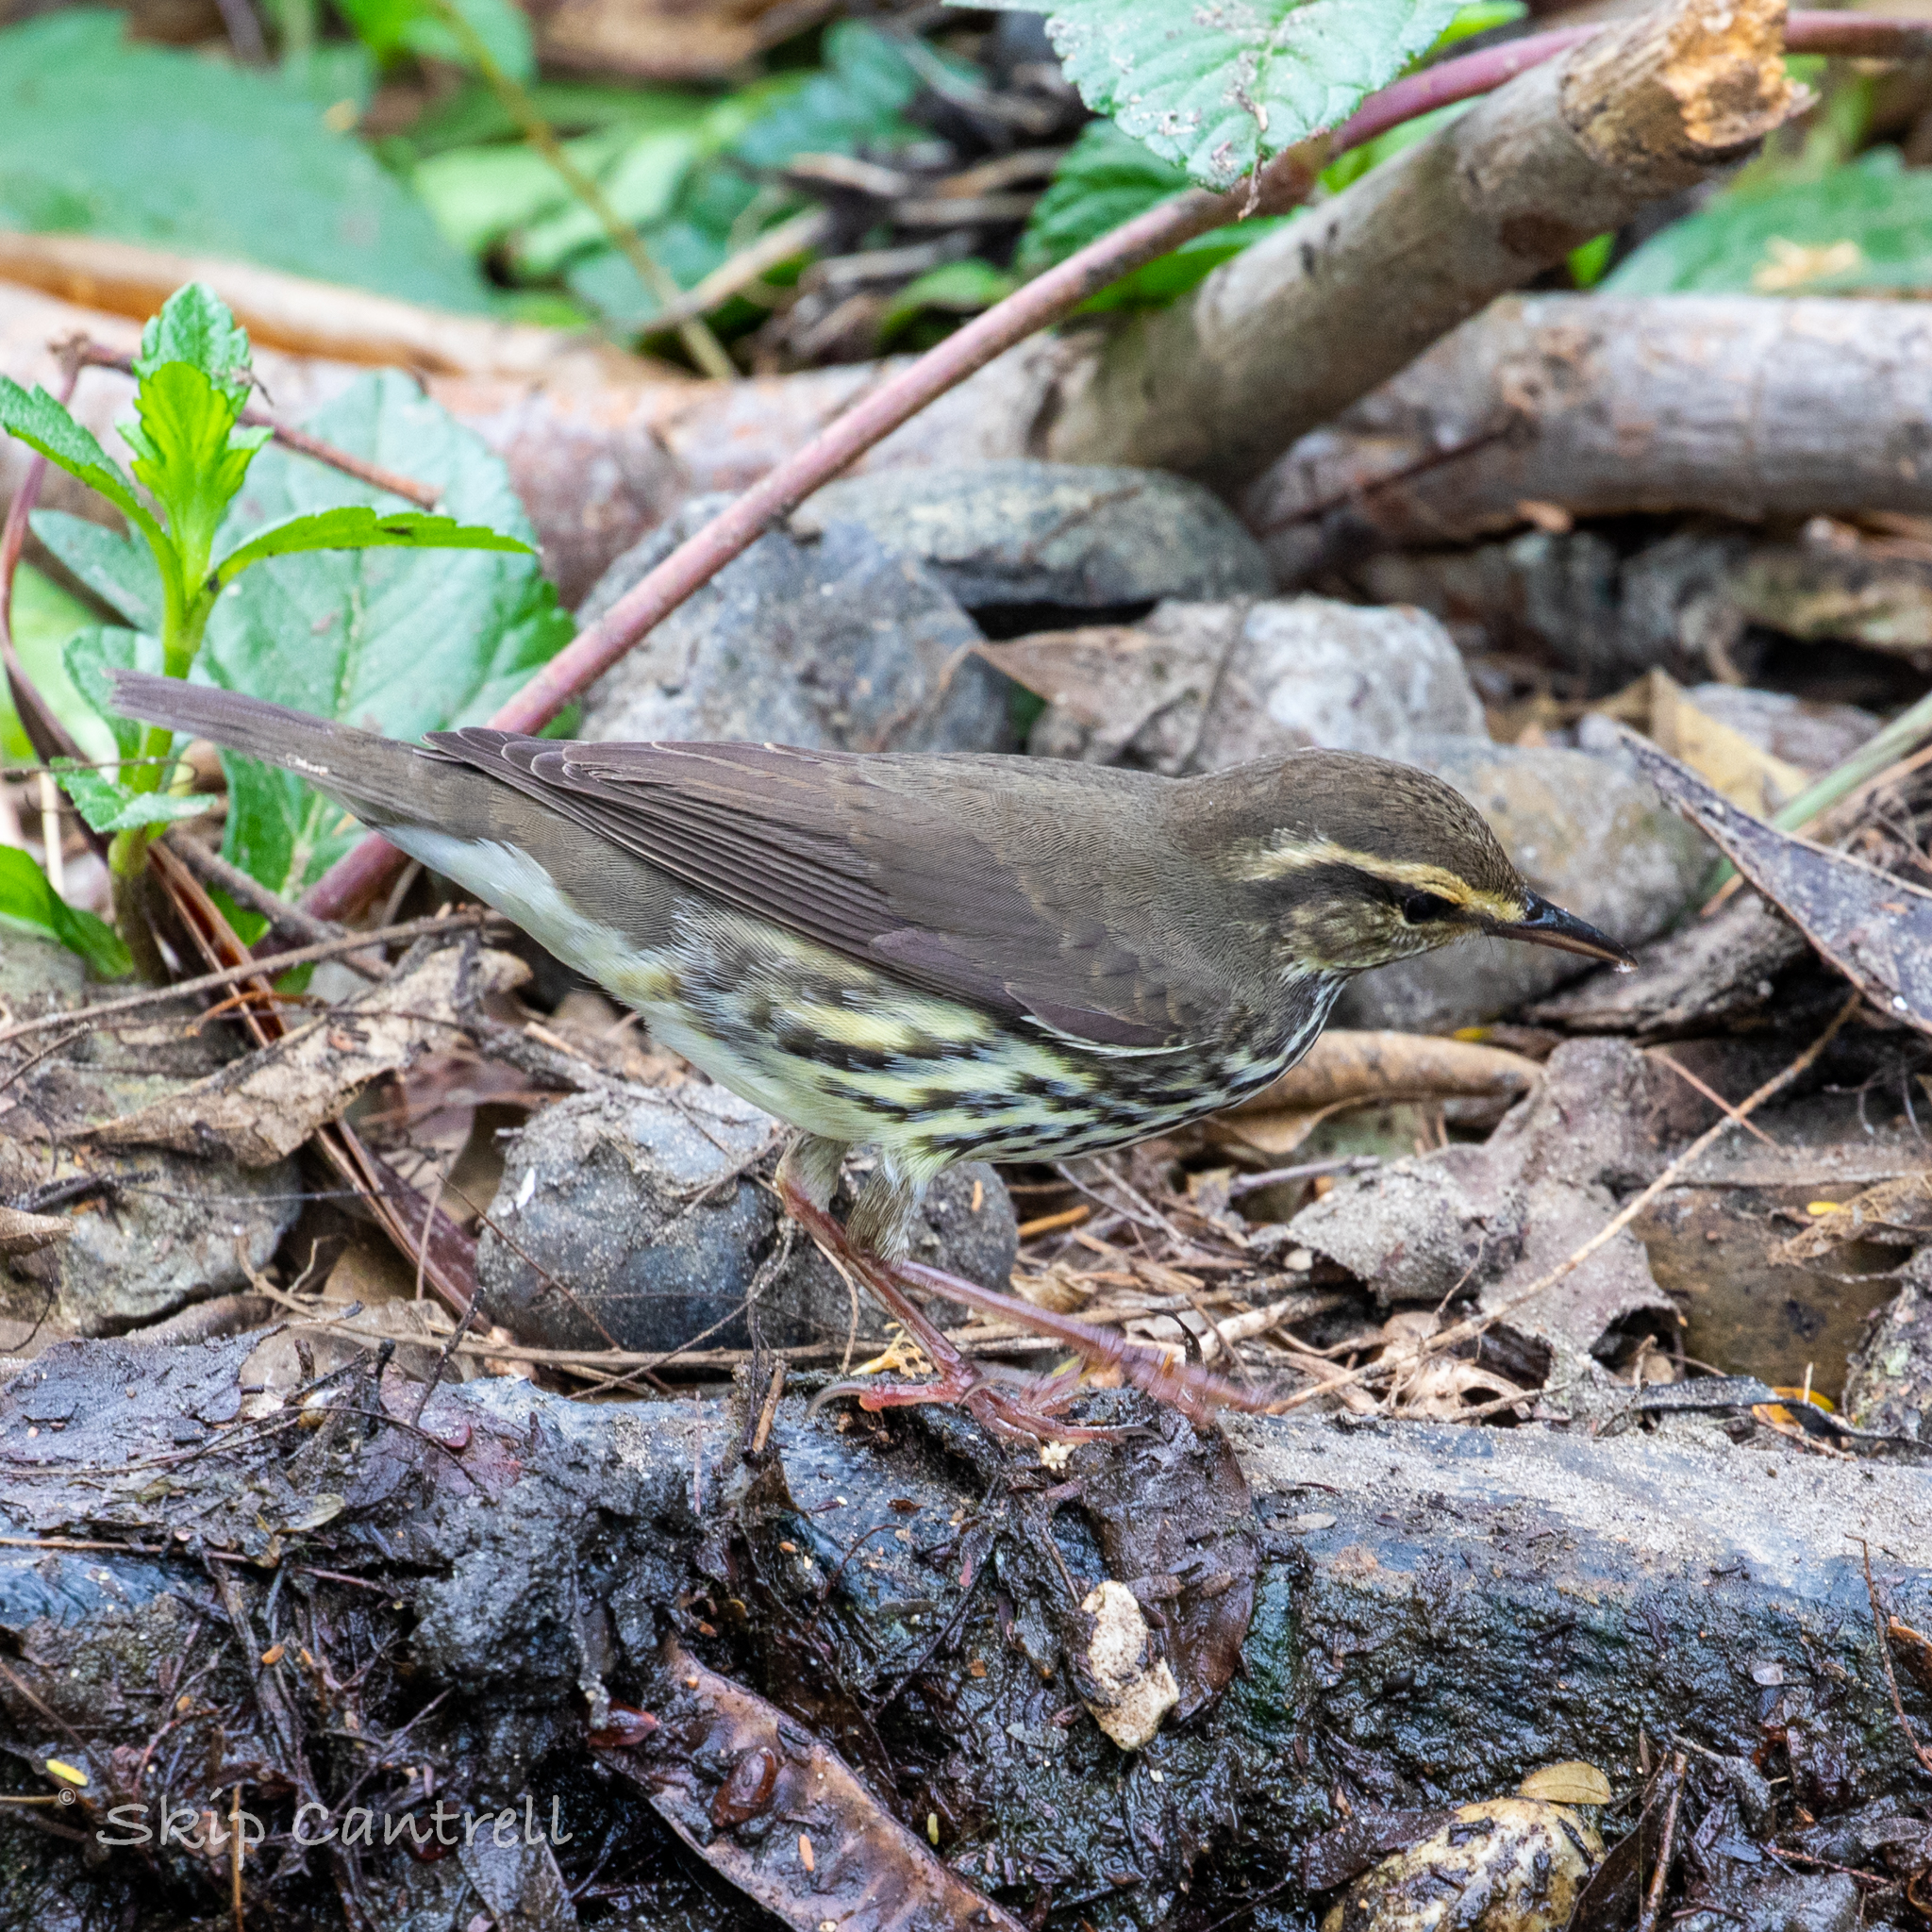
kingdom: Animalia
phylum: Chordata
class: Aves
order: Passeriformes
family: Parulidae
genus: Parkesia
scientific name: Parkesia noveboracensis
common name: Northern waterthrush
